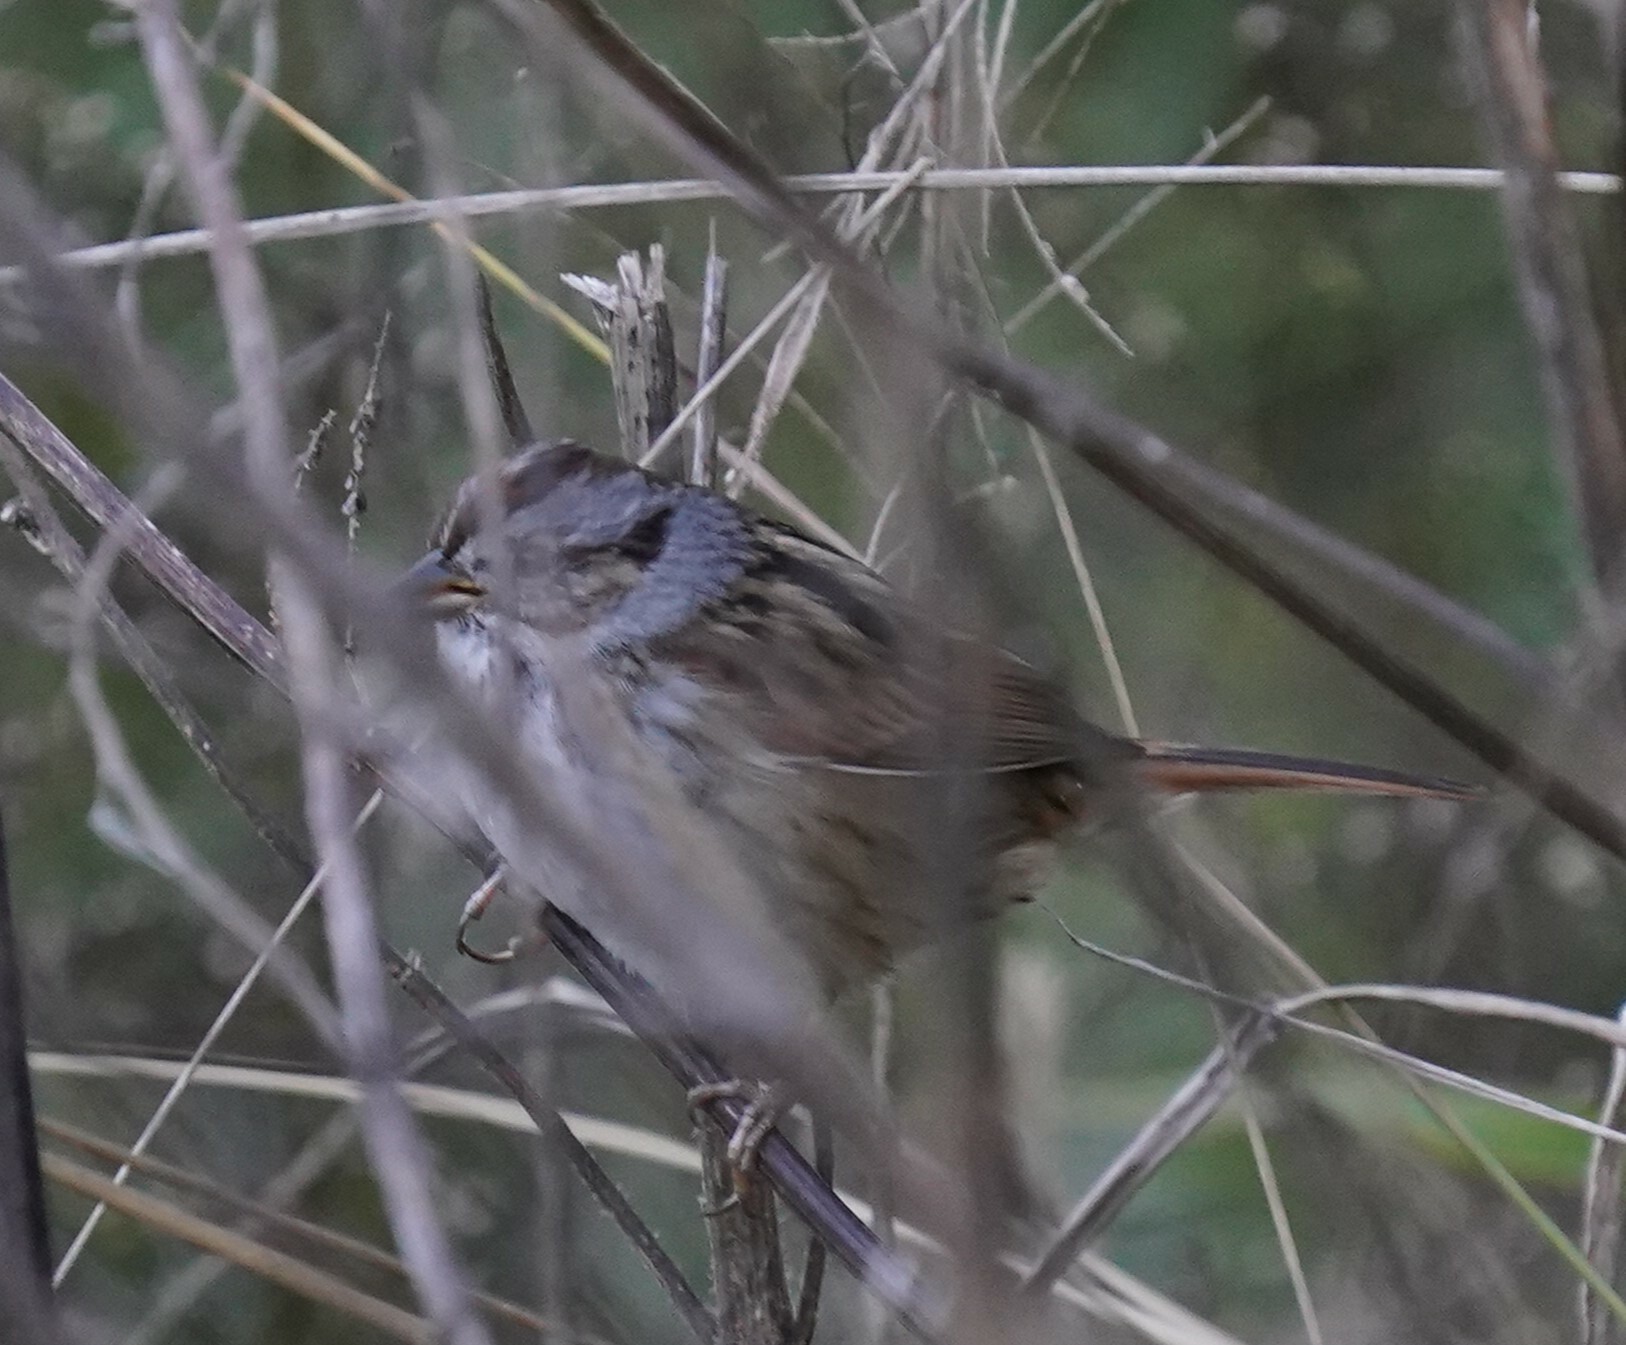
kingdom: Animalia
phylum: Chordata
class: Aves
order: Passeriformes
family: Passerellidae
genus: Melospiza
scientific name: Melospiza georgiana
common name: Swamp sparrow
